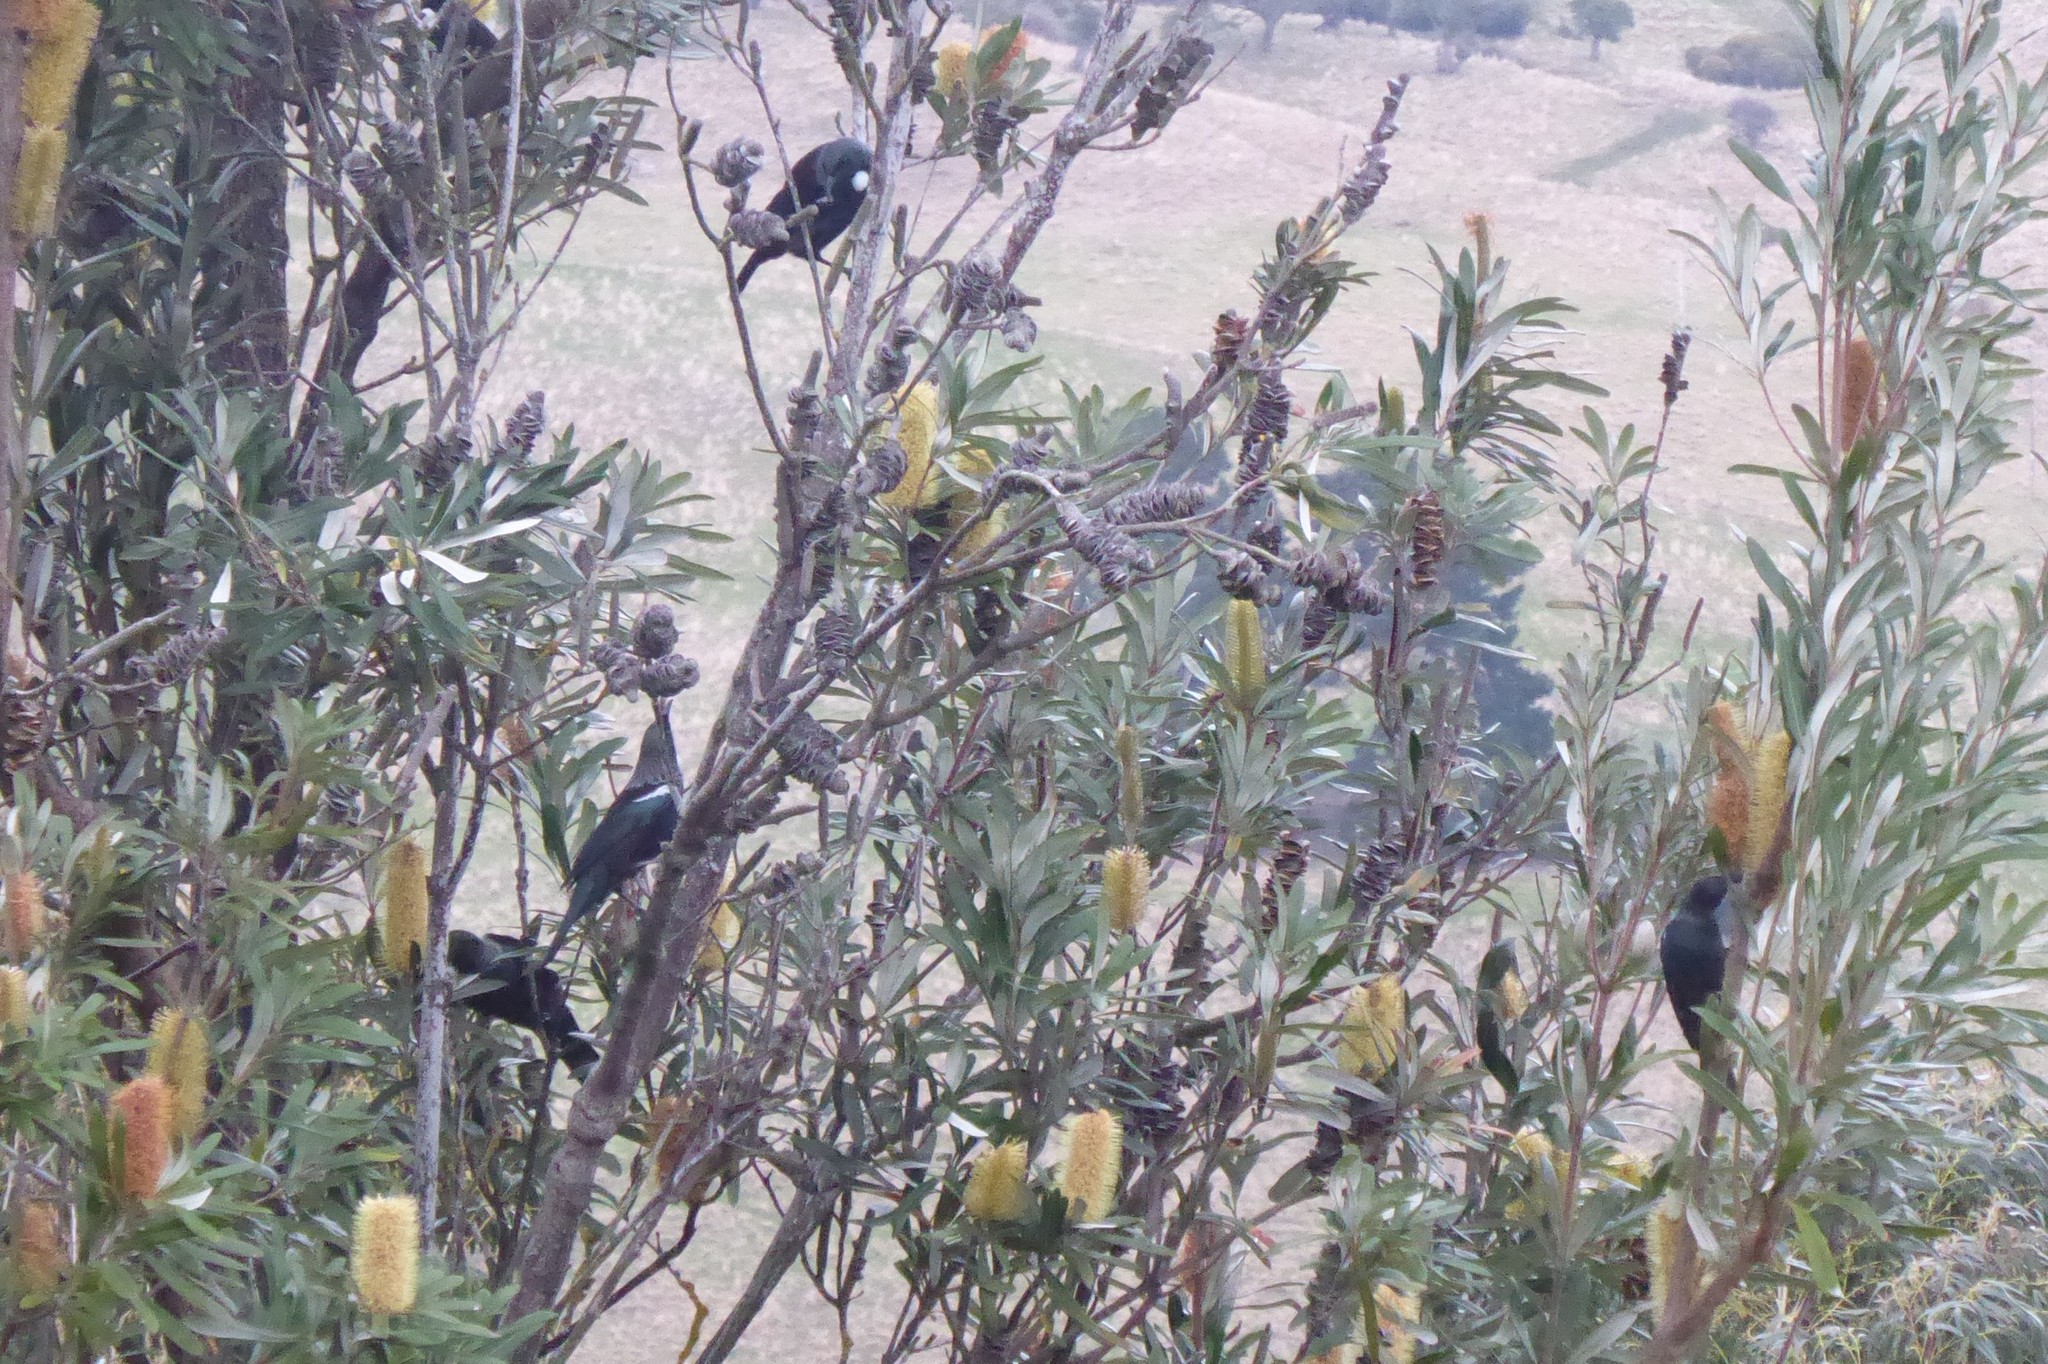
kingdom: Animalia
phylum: Chordata
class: Aves
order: Passeriformes
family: Meliphagidae
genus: Prosthemadera
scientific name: Prosthemadera novaeseelandiae
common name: Tui
